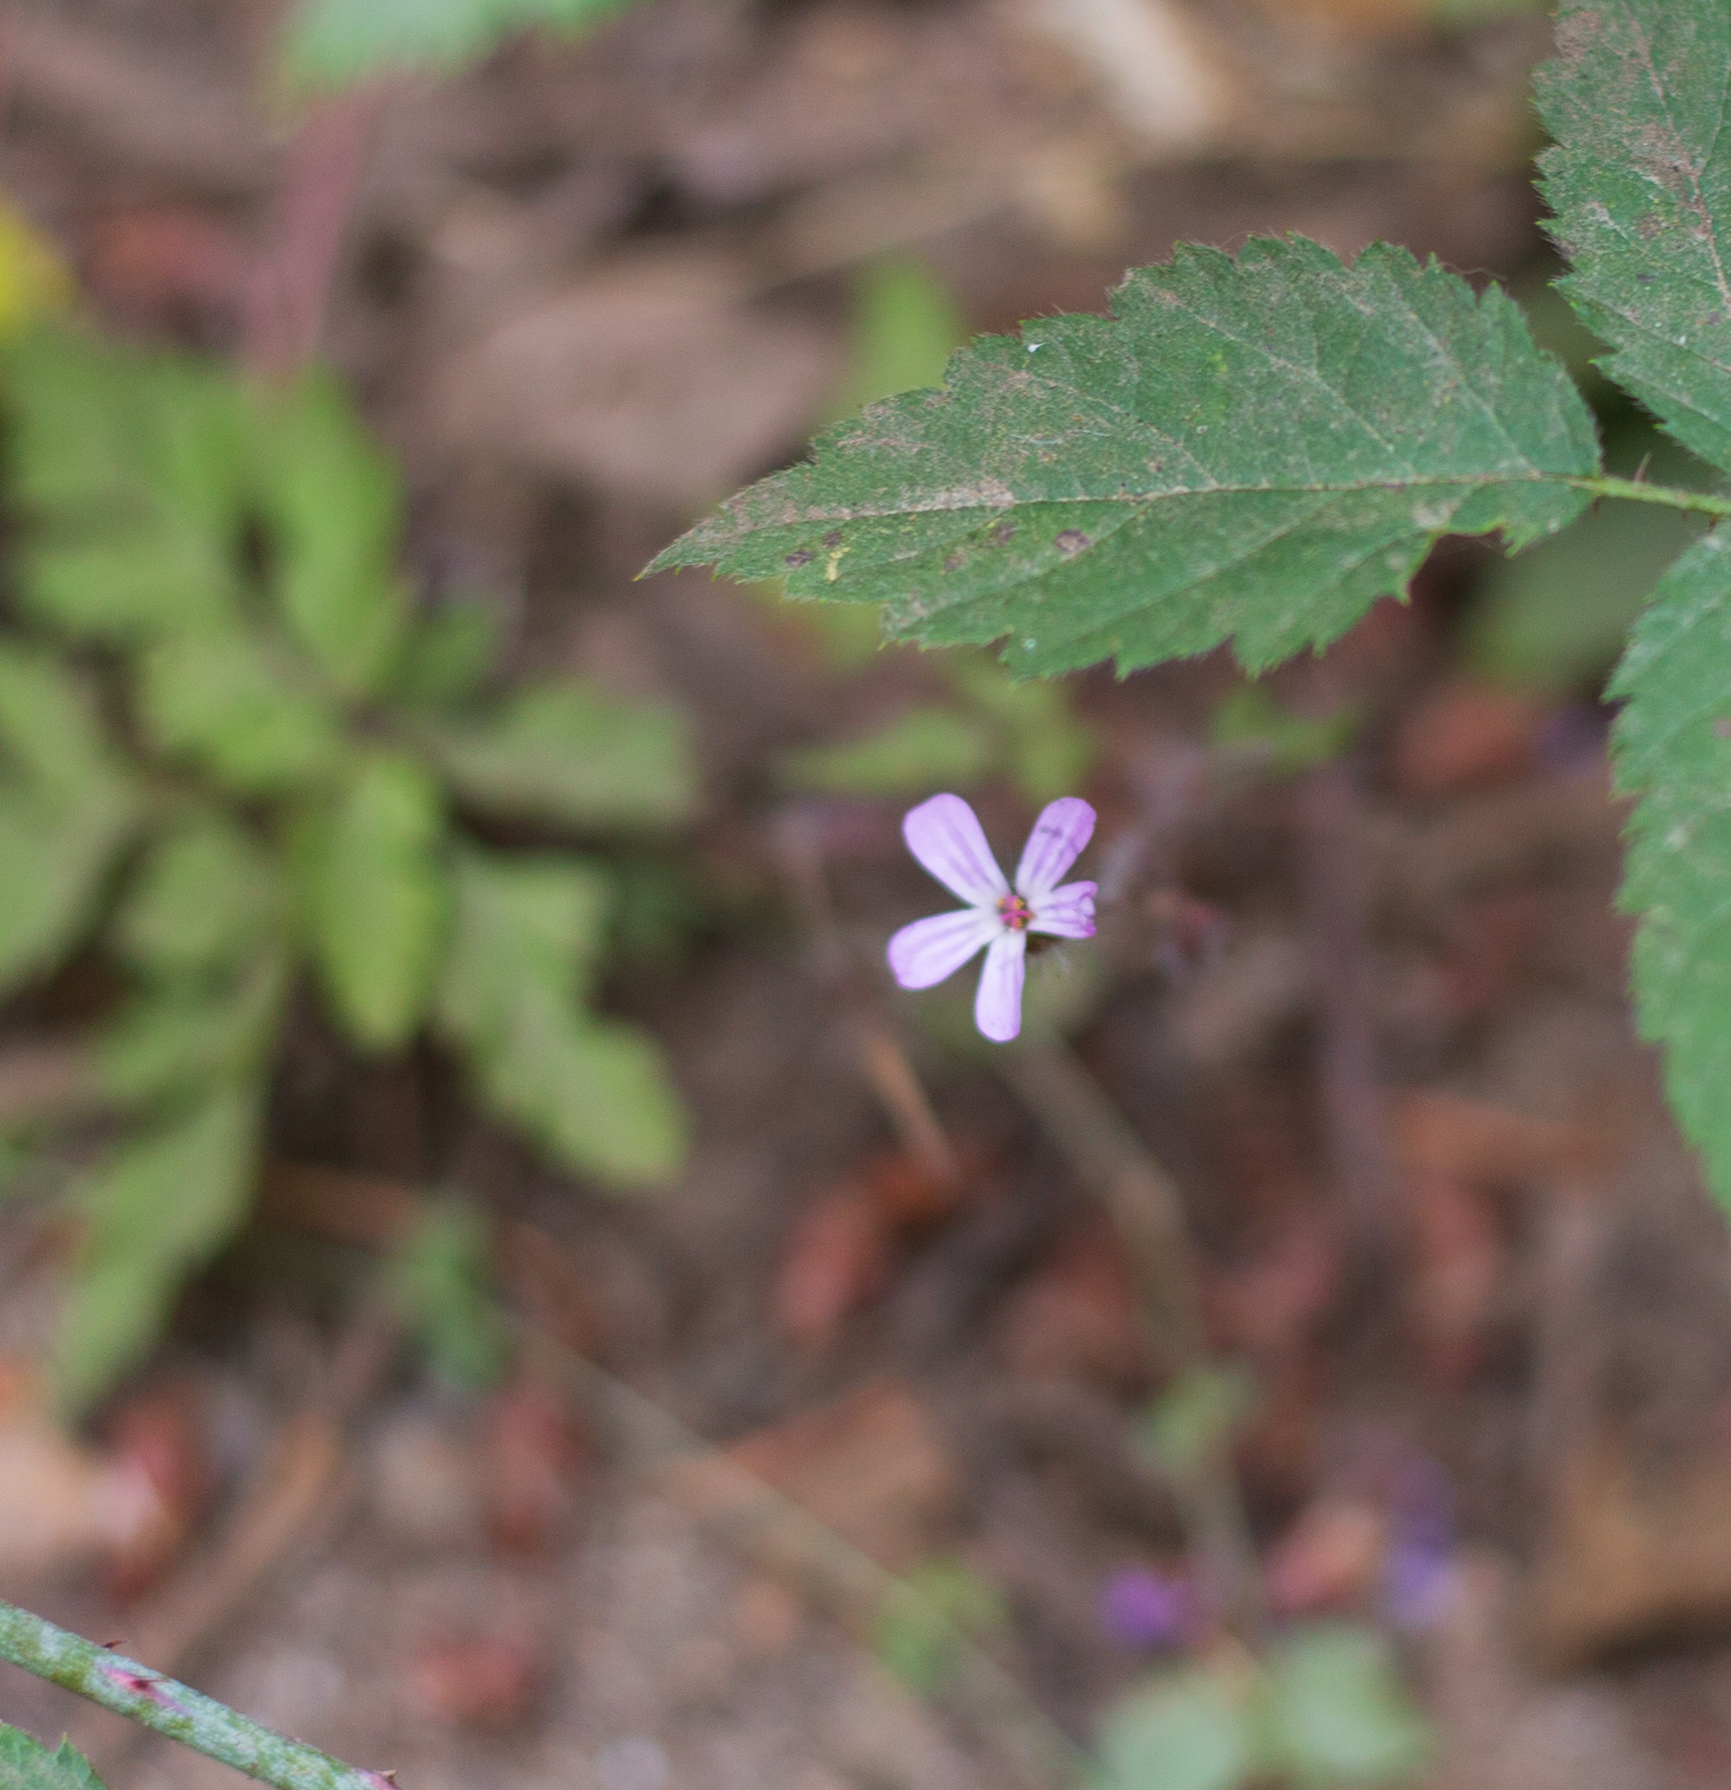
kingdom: Plantae
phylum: Tracheophyta
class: Magnoliopsida
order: Geraniales
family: Geraniaceae
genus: Geranium
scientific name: Geranium robertianum
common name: Herb-robert
